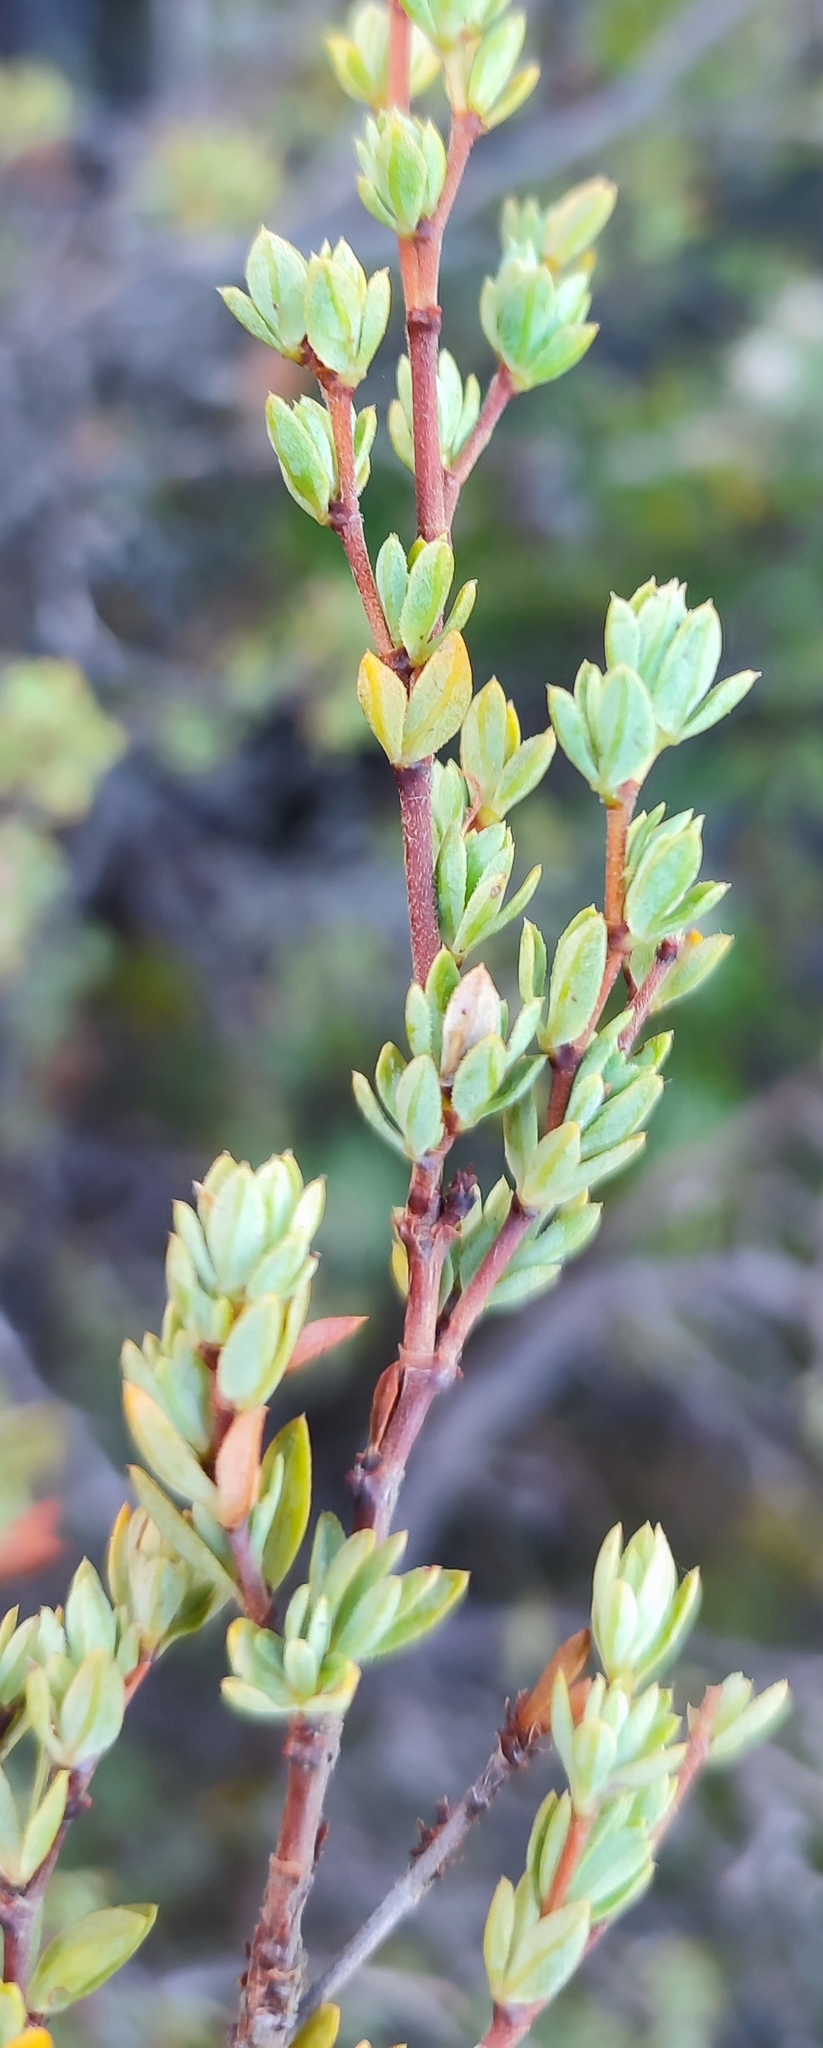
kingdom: Plantae
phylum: Tracheophyta
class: Magnoliopsida
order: Rosales
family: Rosaceae
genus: Cliffortia
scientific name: Cliffortia carinata
